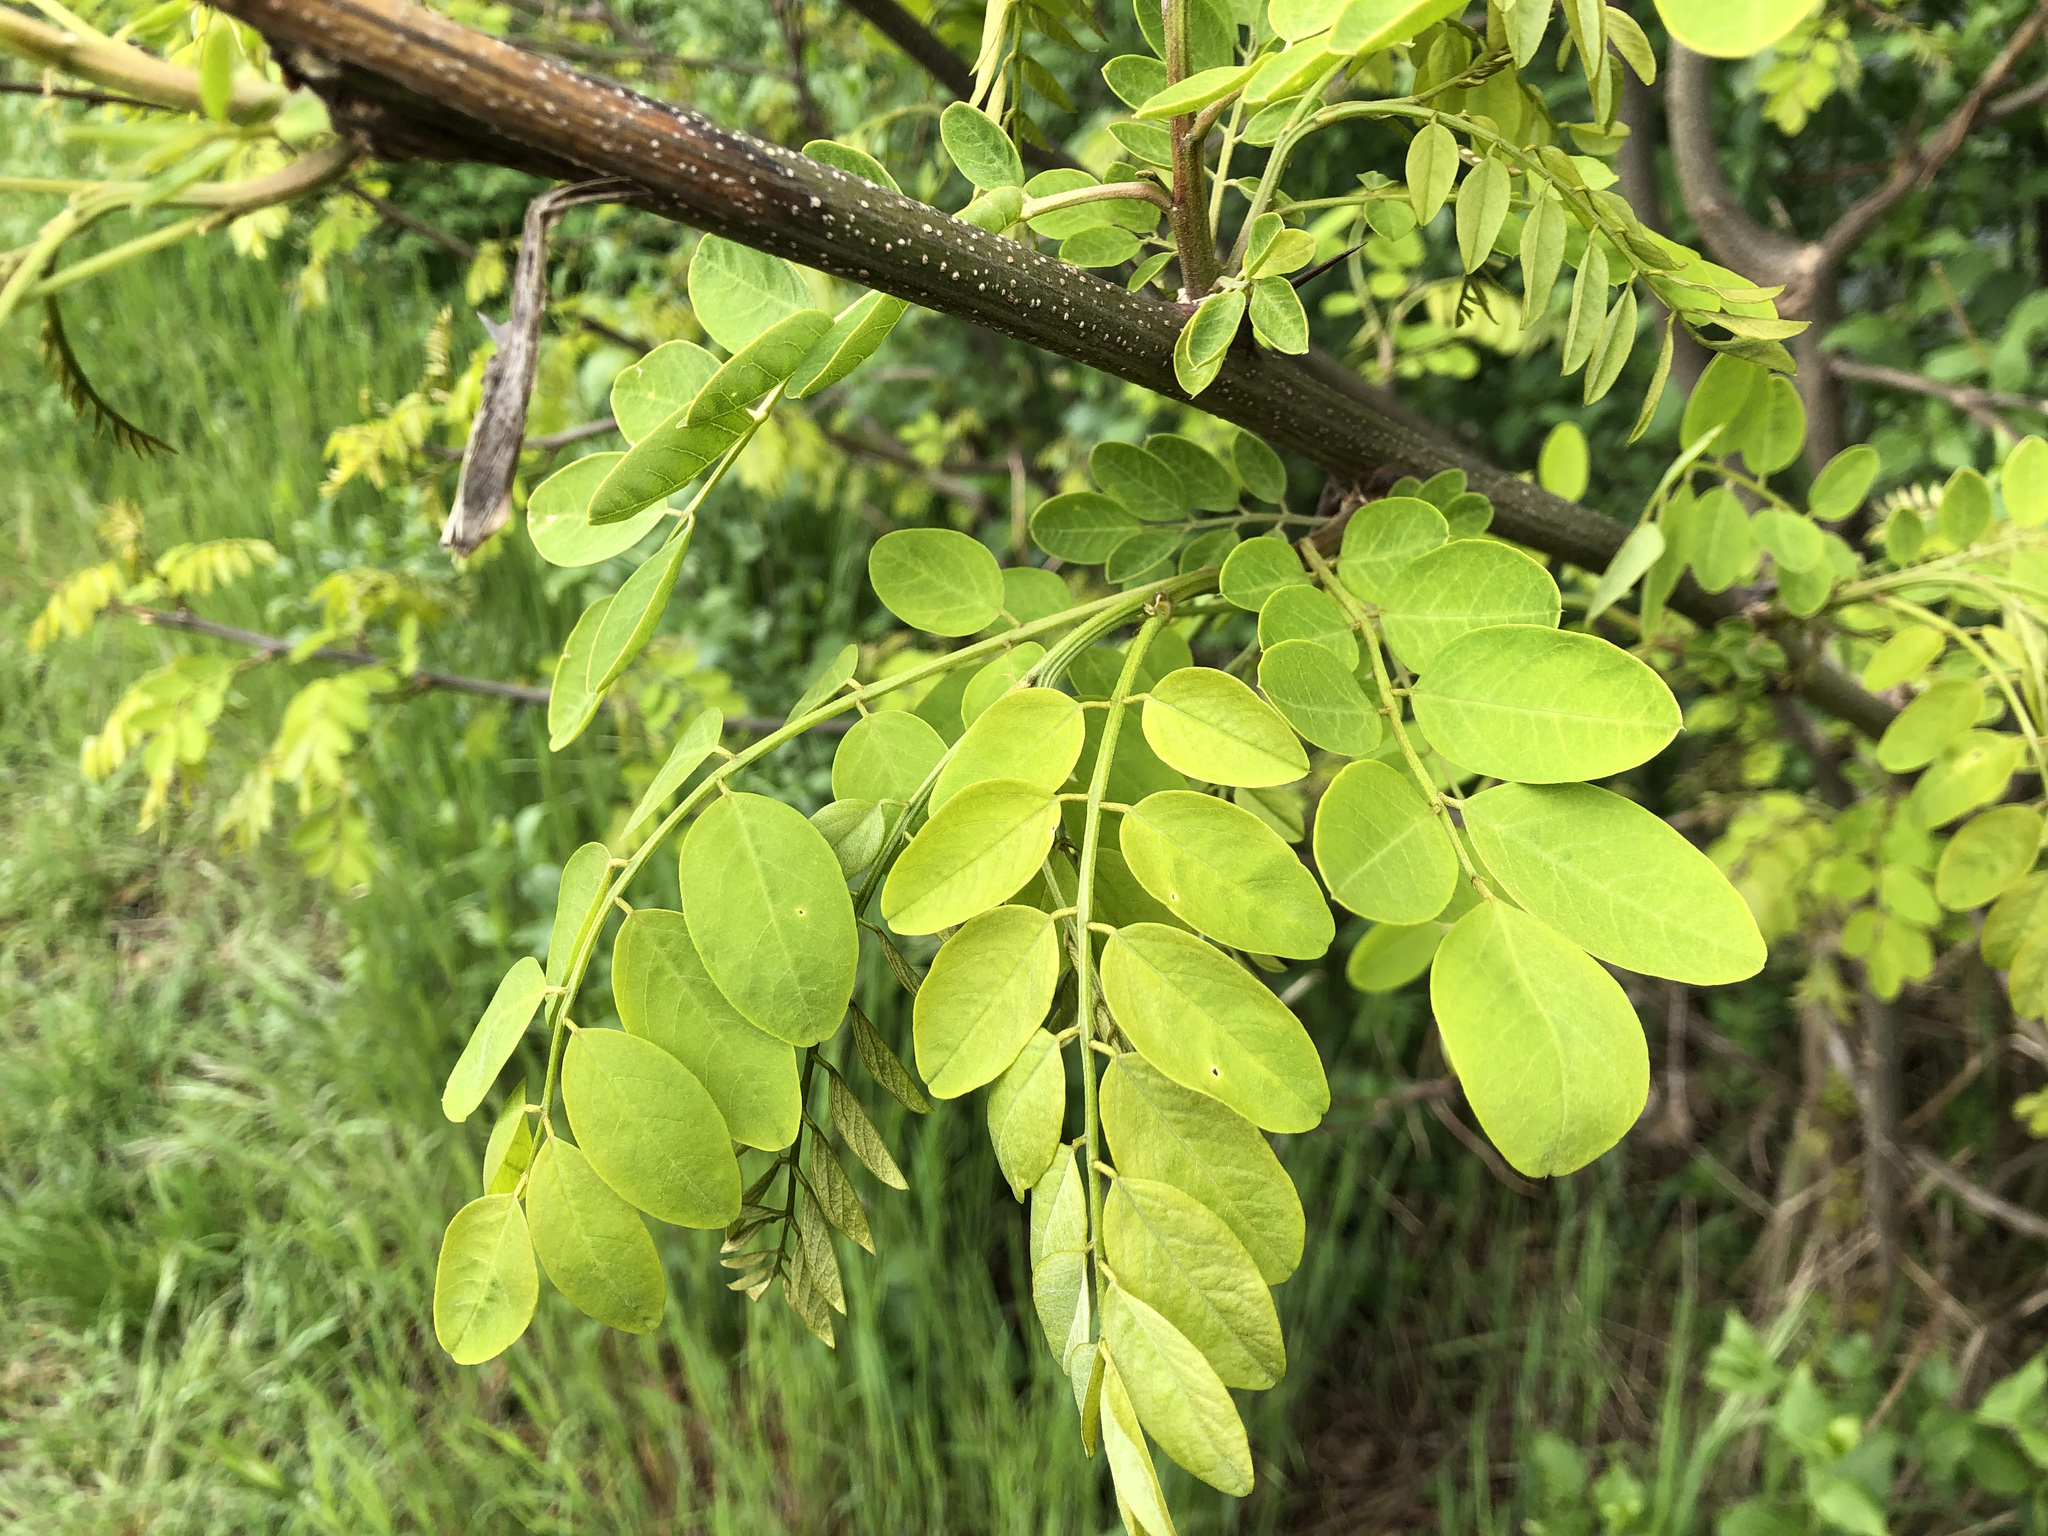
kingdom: Plantae
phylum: Tracheophyta
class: Magnoliopsida
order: Fabales
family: Fabaceae
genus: Robinia
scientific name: Robinia pseudoacacia
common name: Black locust
